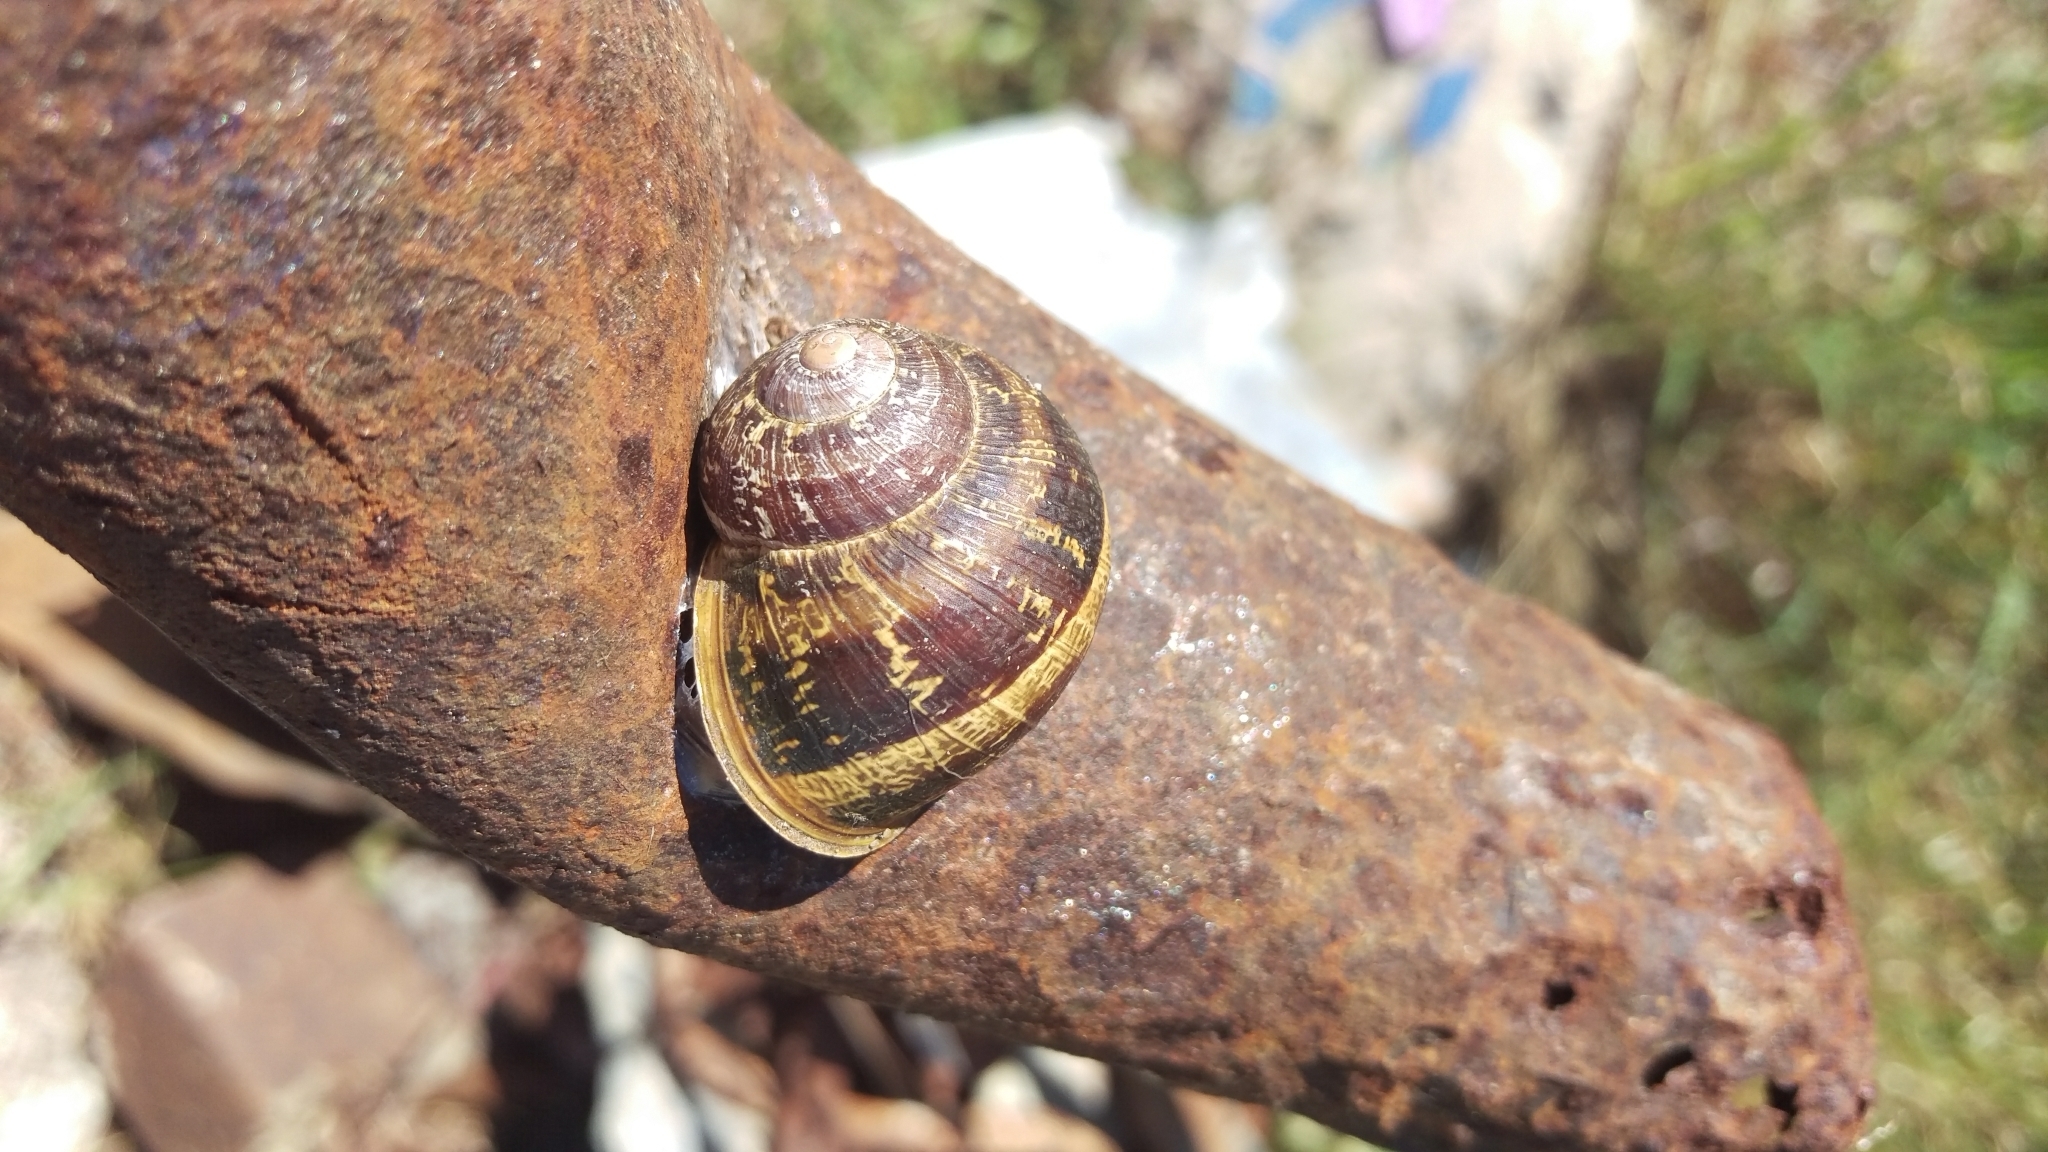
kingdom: Animalia
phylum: Mollusca
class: Gastropoda
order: Stylommatophora
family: Helicidae
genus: Cornu
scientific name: Cornu aspersum
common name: Brown garden snail
